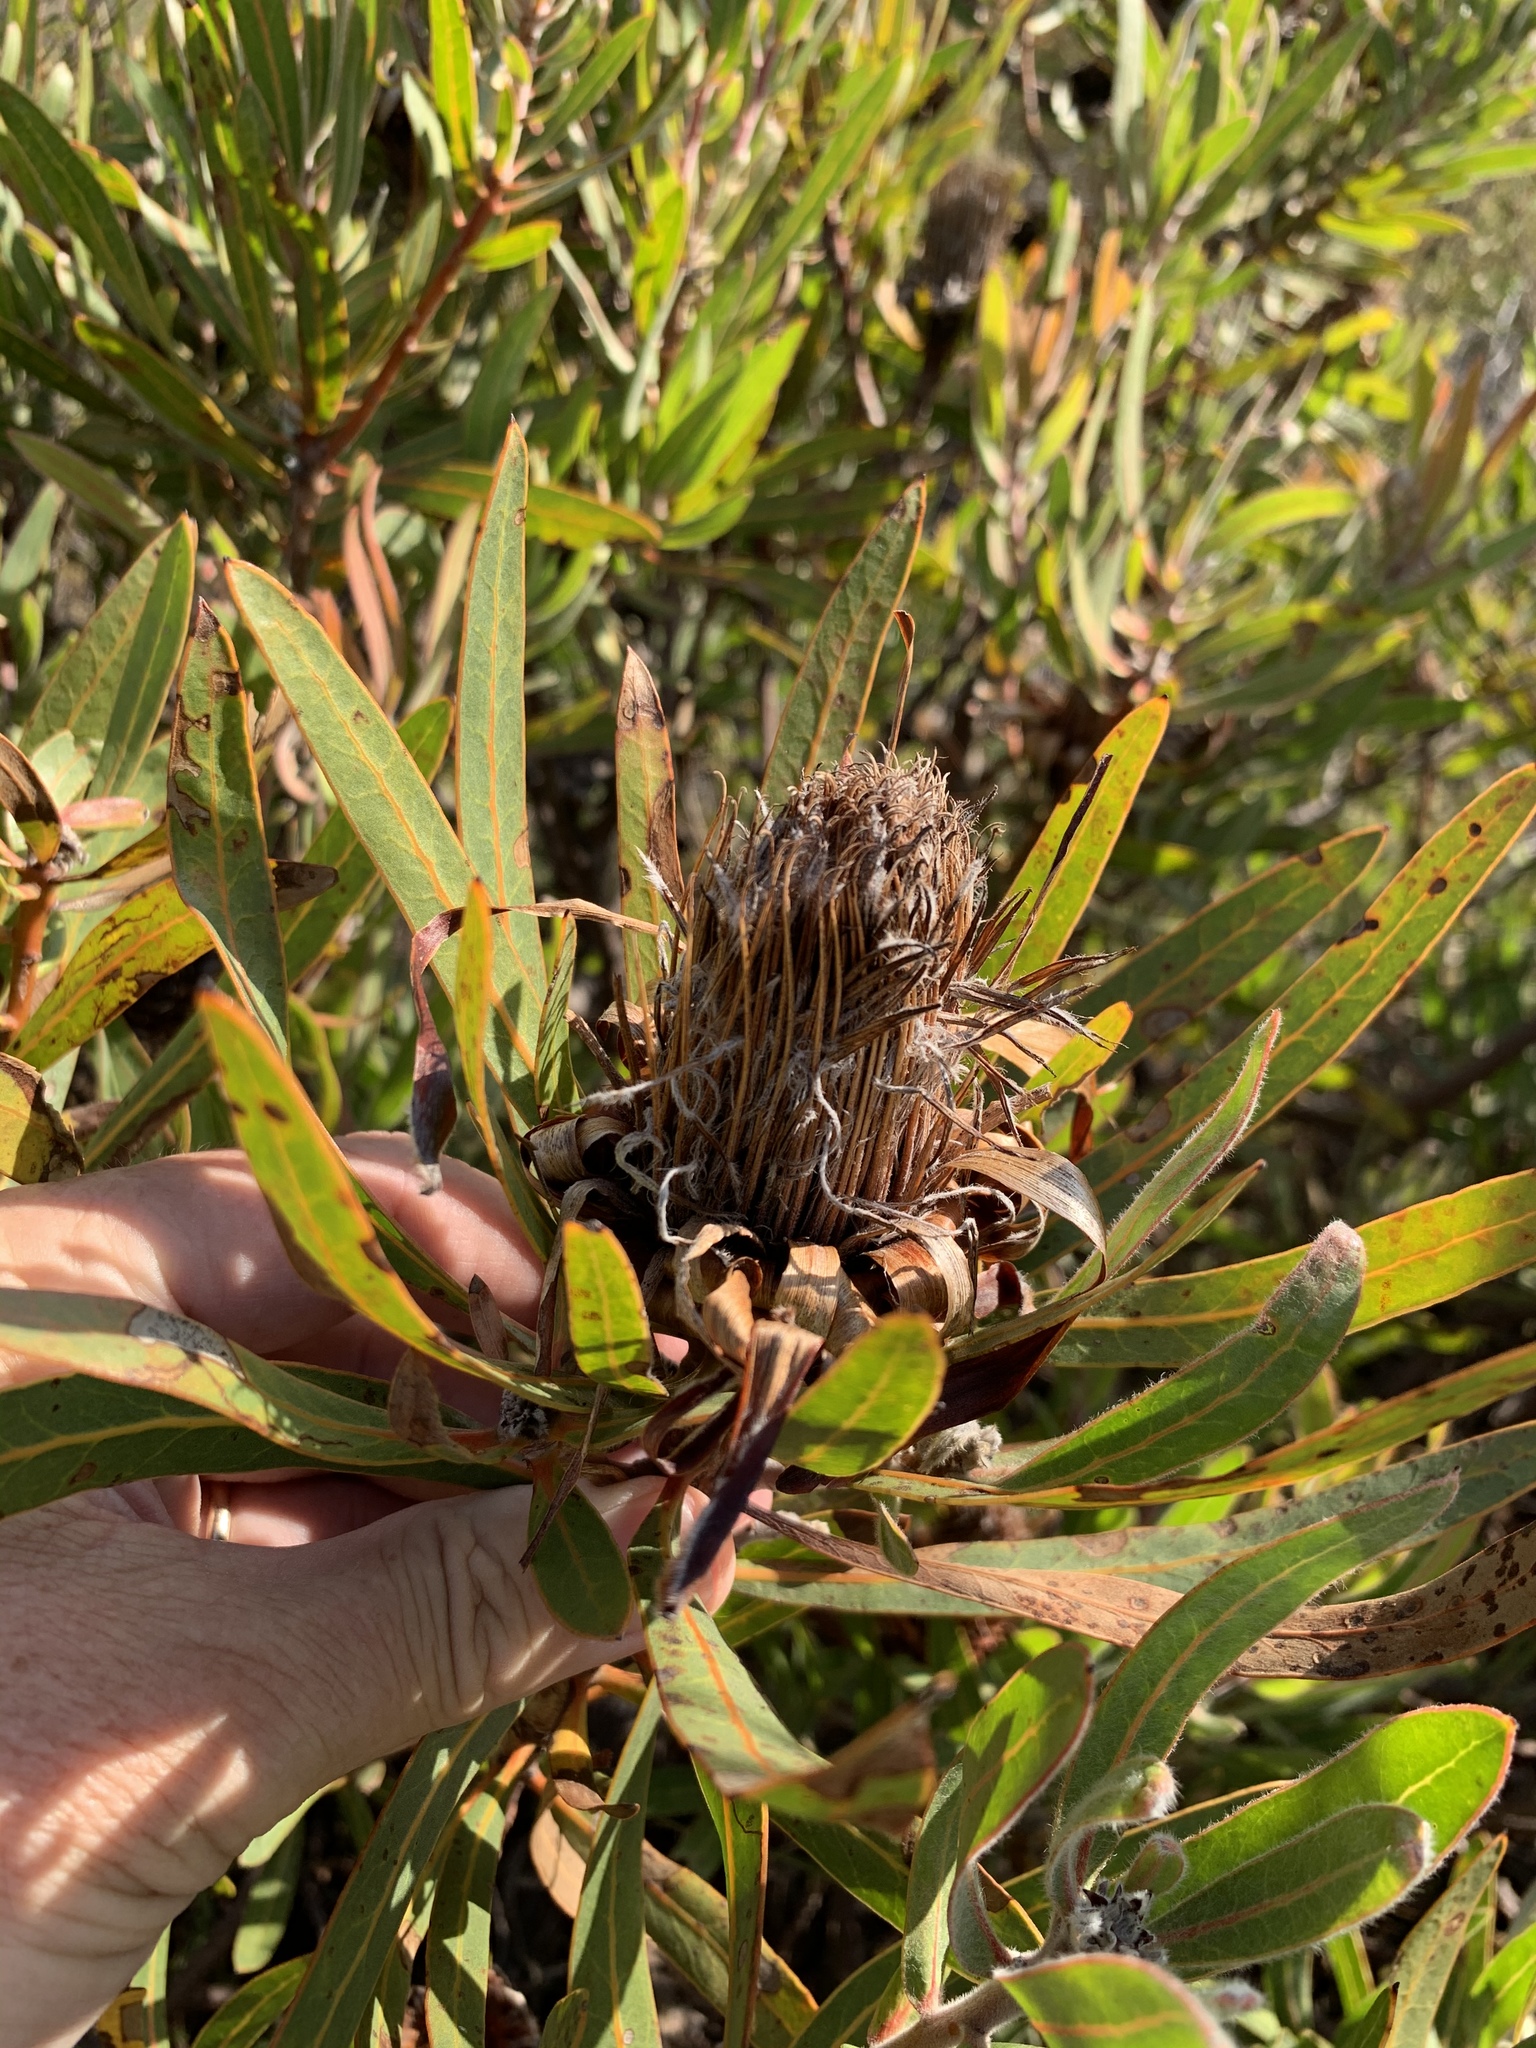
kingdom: Plantae
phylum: Tracheophyta
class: Magnoliopsida
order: Proteales
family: Proteaceae
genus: Protea
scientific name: Protea burchellii
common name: Burchell's sugarbush
